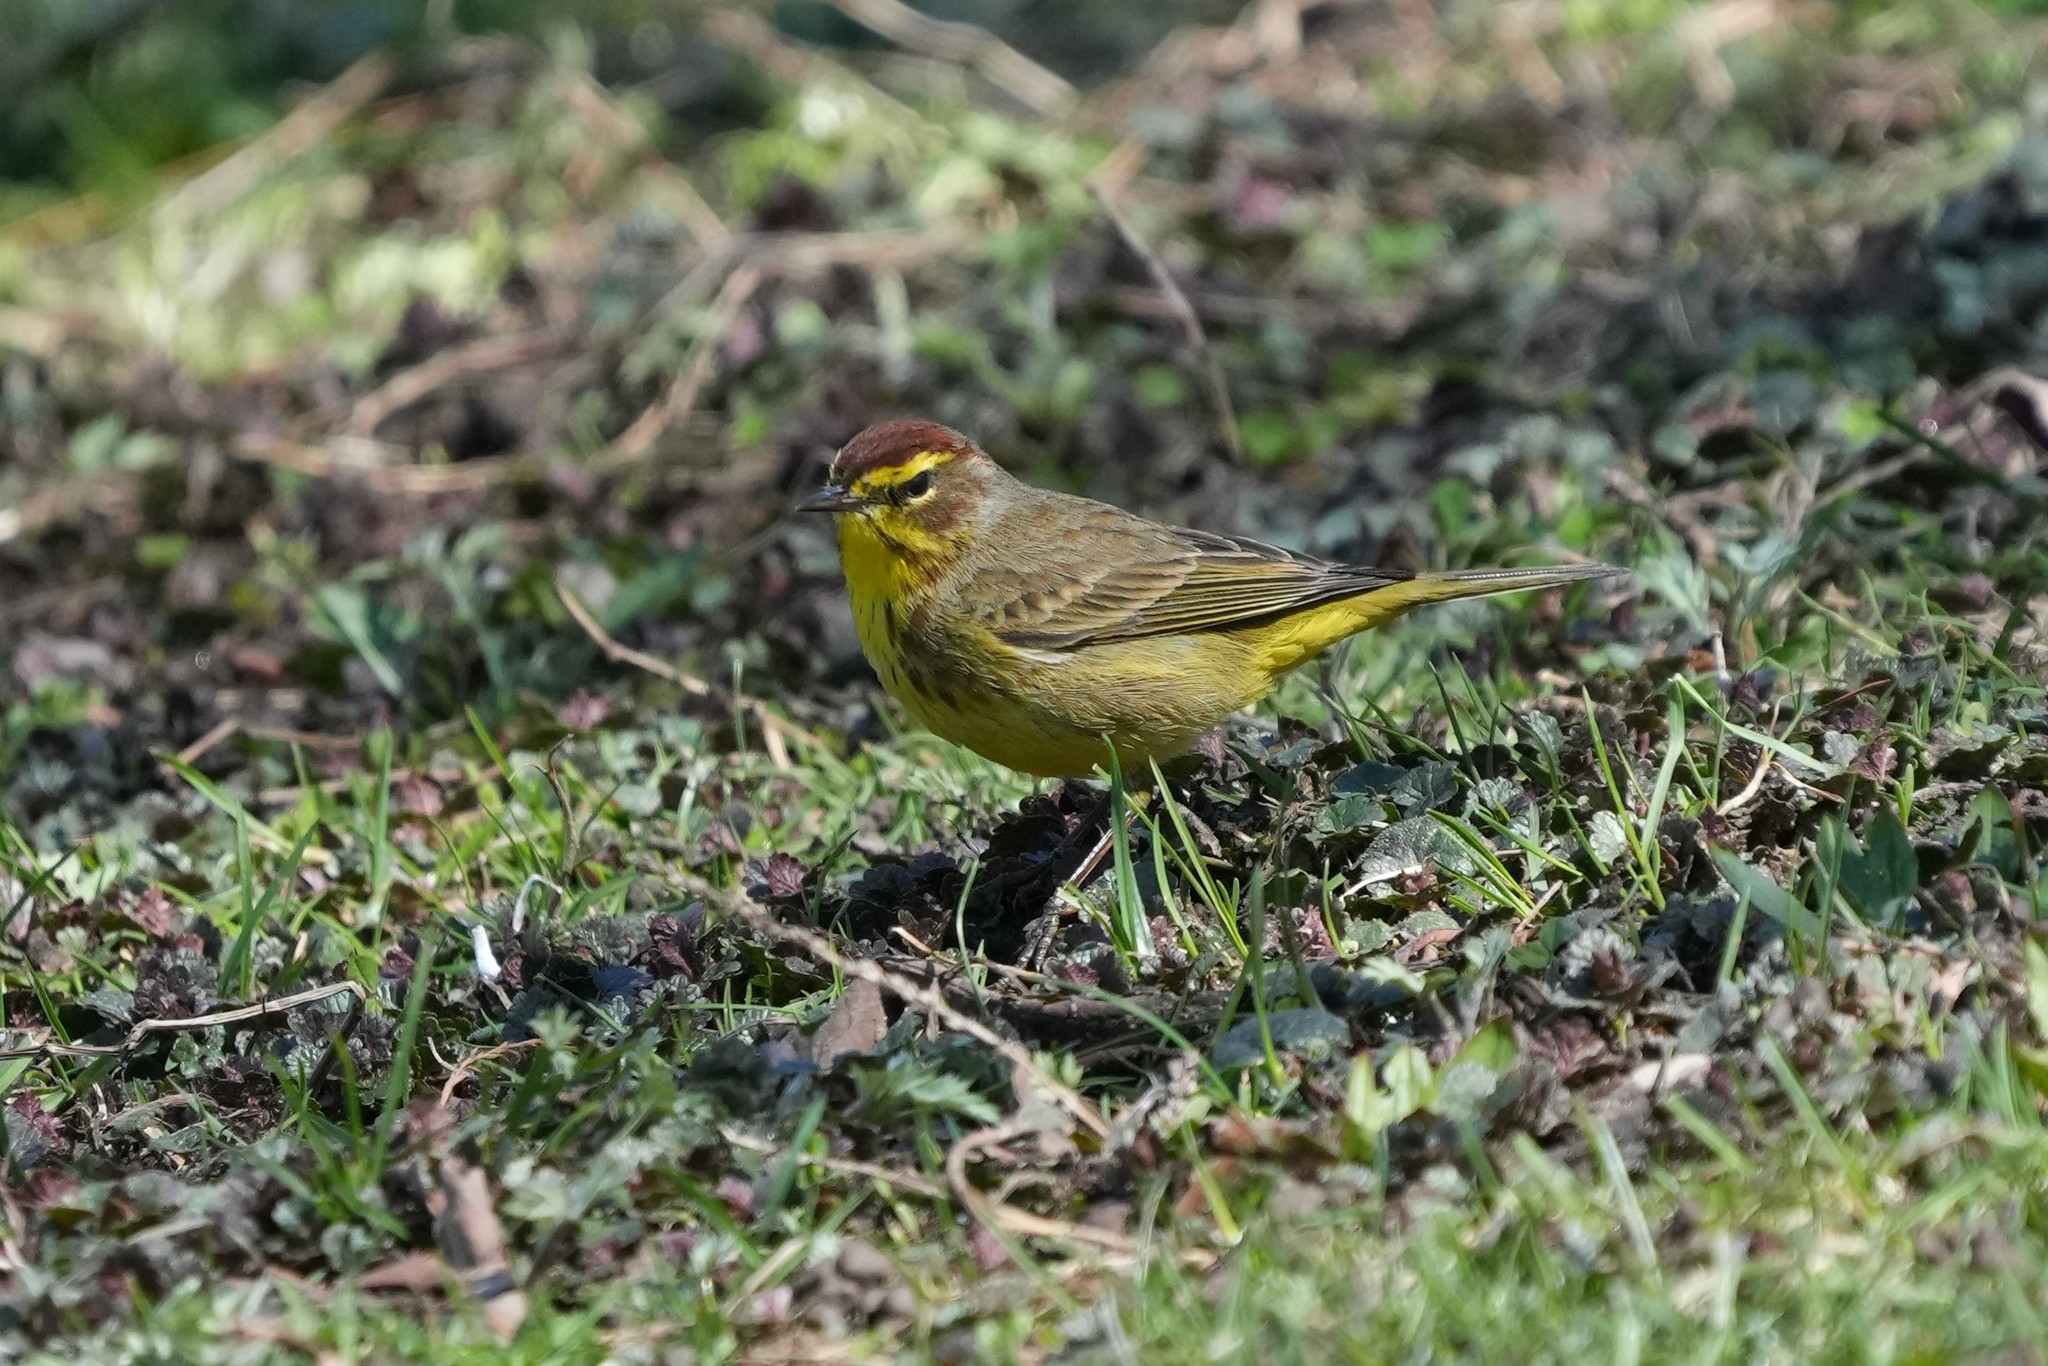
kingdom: Animalia
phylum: Chordata
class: Aves
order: Passeriformes
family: Parulidae
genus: Setophaga
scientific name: Setophaga palmarum
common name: Palm warbler
